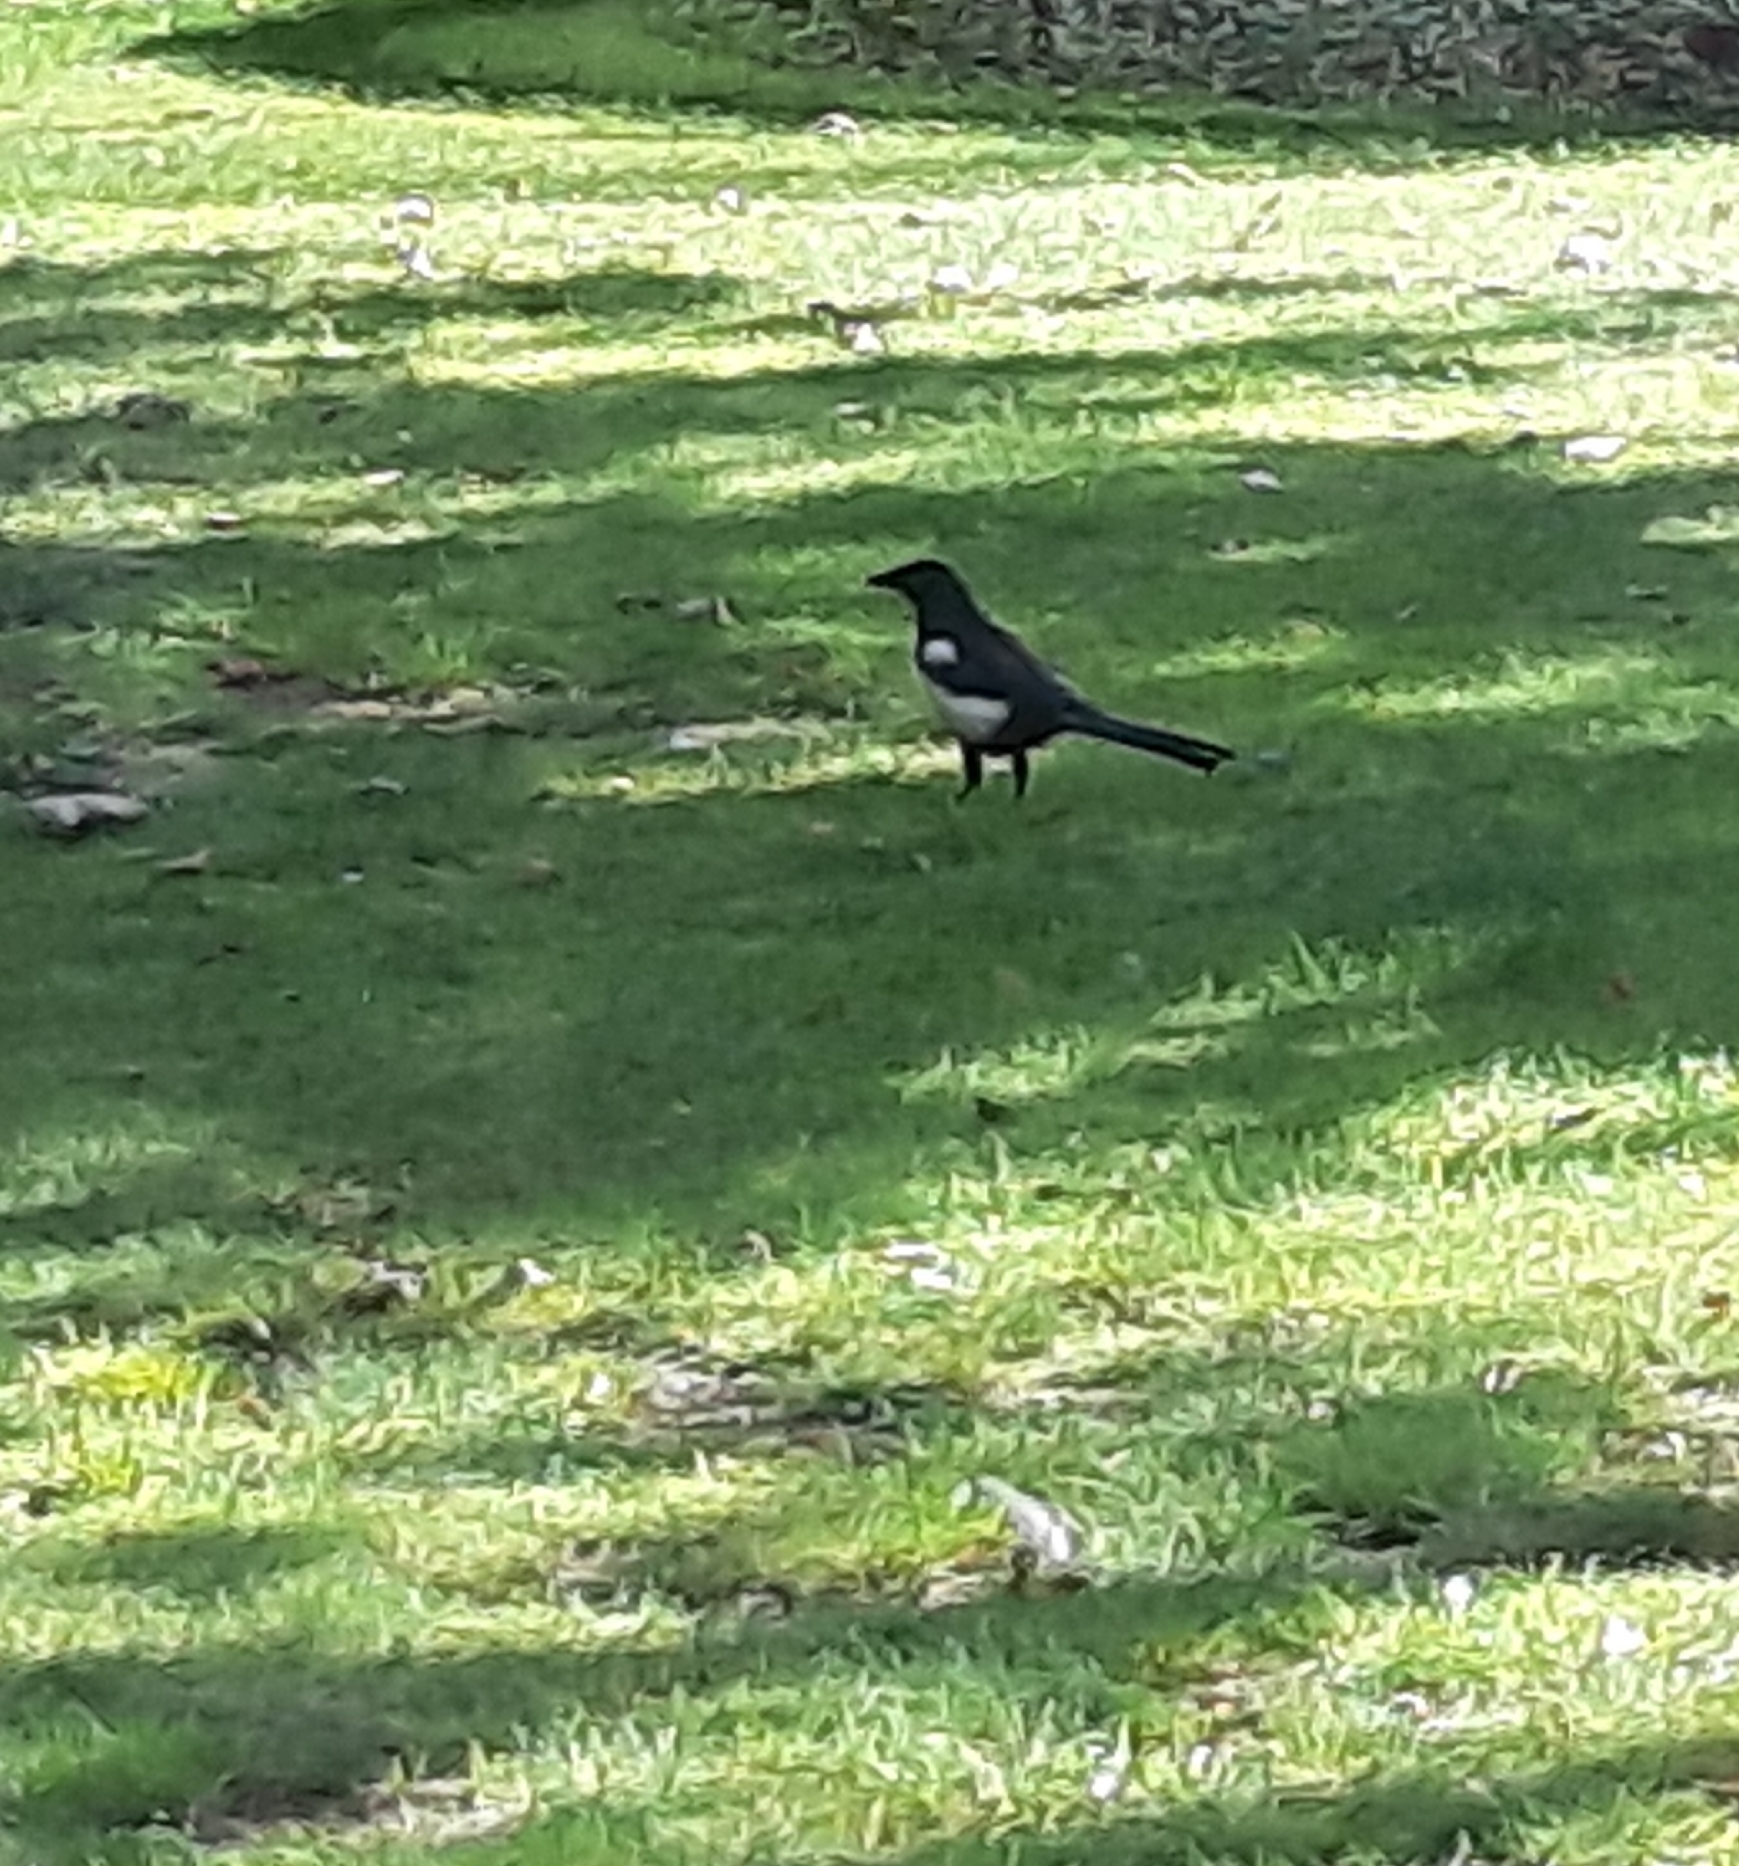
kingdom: Animalia
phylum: Chordata
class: Aves
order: Passeriformes
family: Corvidae
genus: Pica
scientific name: Pica pica
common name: Eurasian magpie
